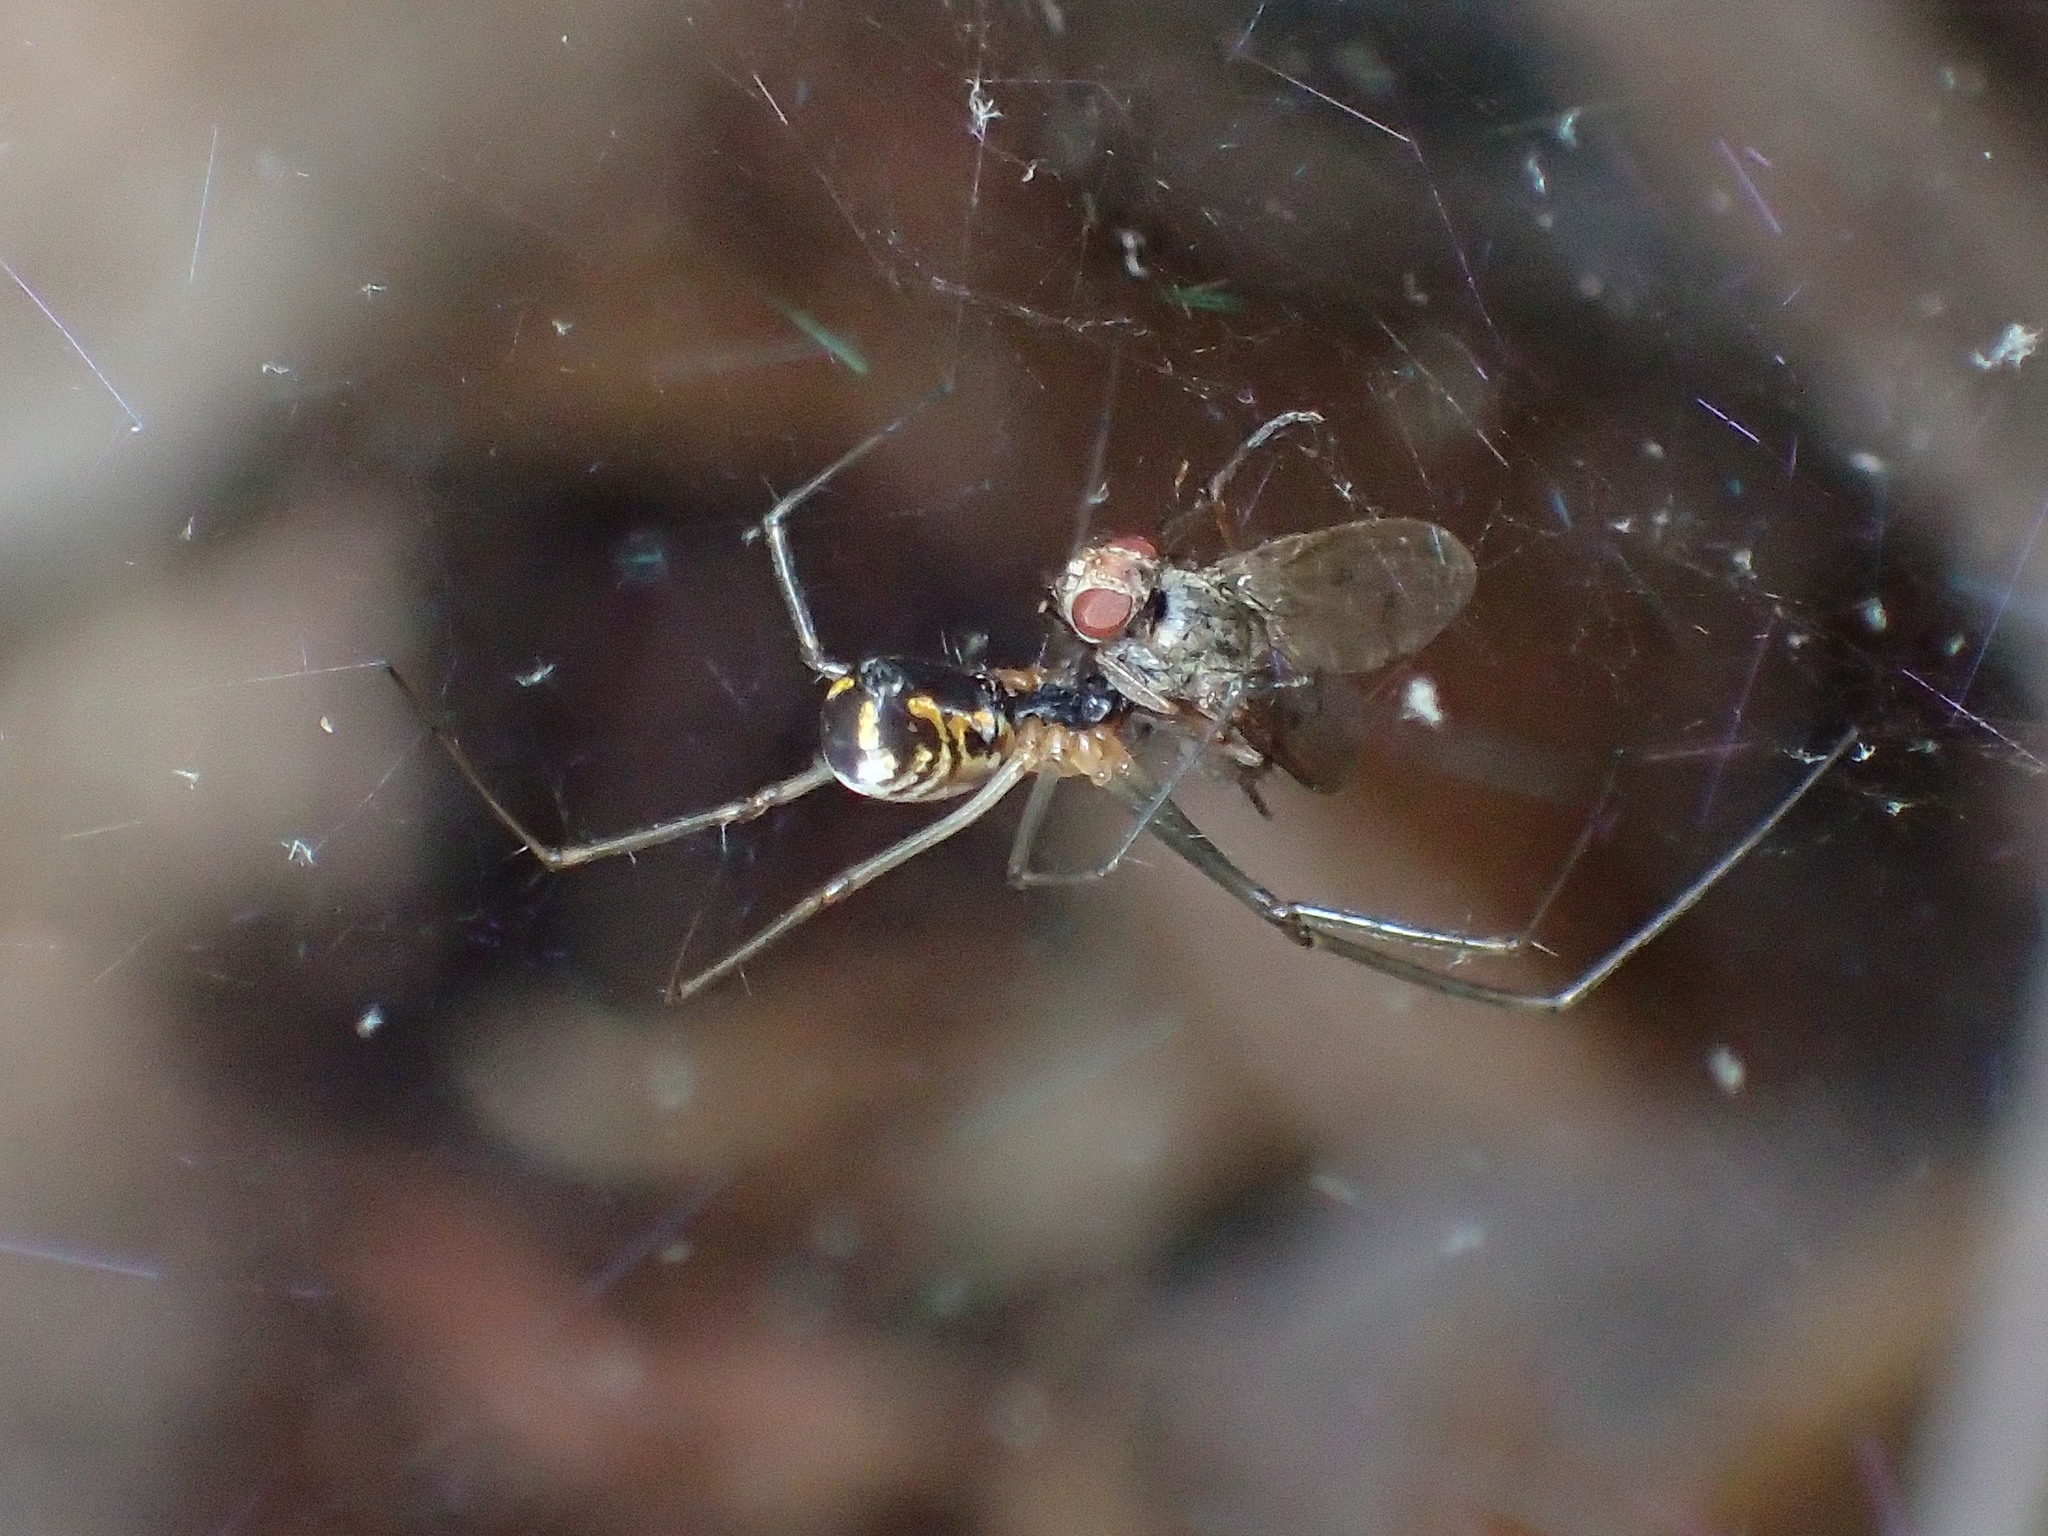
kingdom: Animalia
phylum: Arthropoda
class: Arachnida
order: Araneae
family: Linyphiidae
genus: Neriene
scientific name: Neriene radiata
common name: Filmy dome spider
